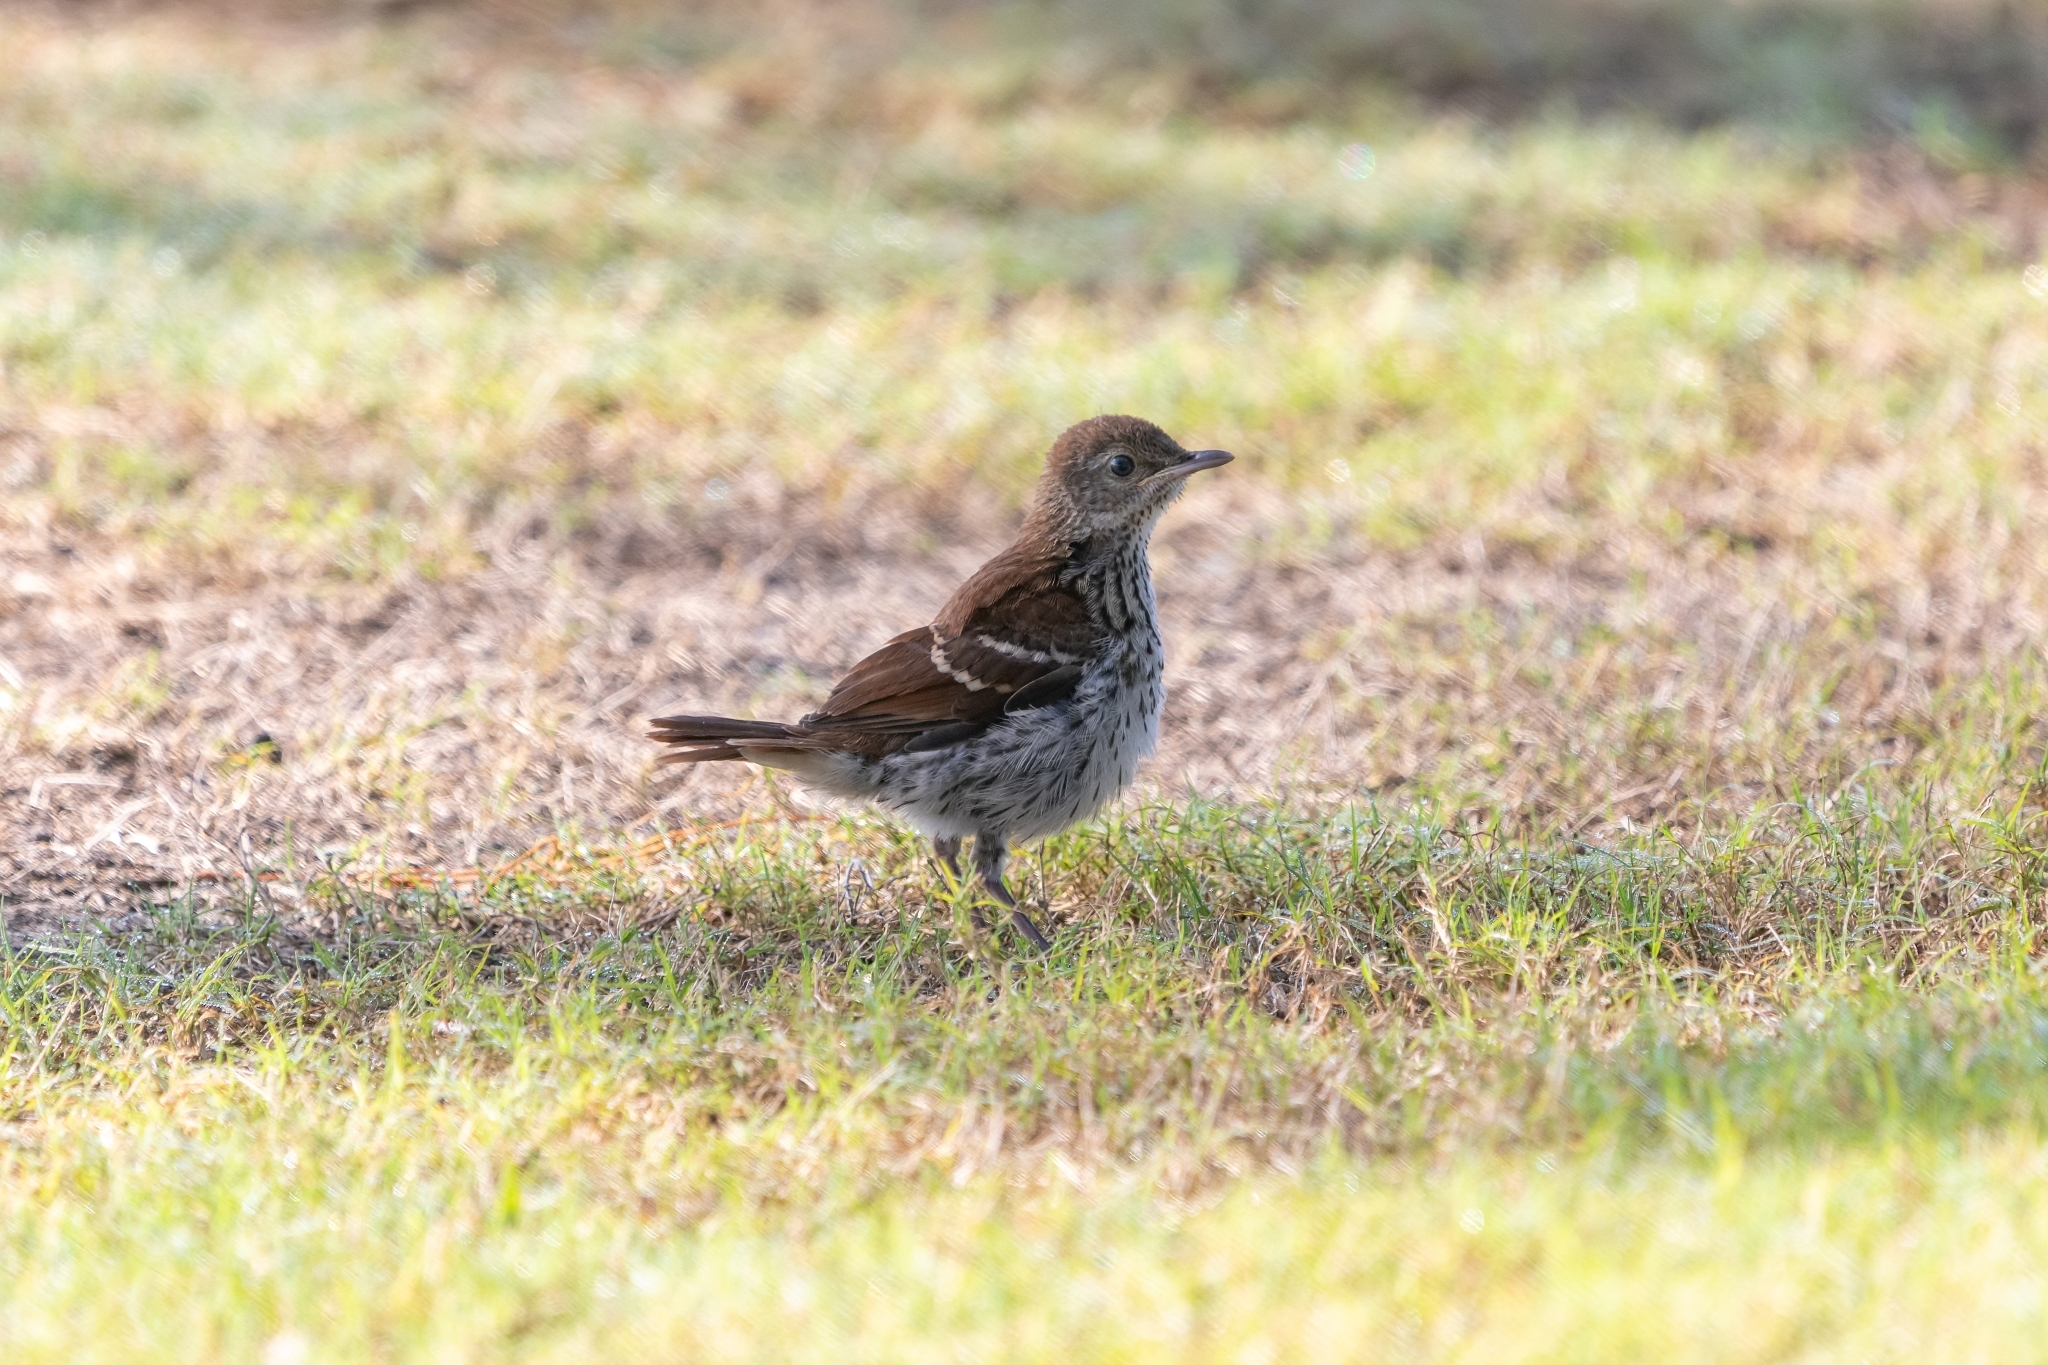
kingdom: Animalia
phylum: Chordata
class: Aves
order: Passeriformes
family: Mimidae
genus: Toxostoma
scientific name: Toxostoma rufum
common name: Brown thrasher
